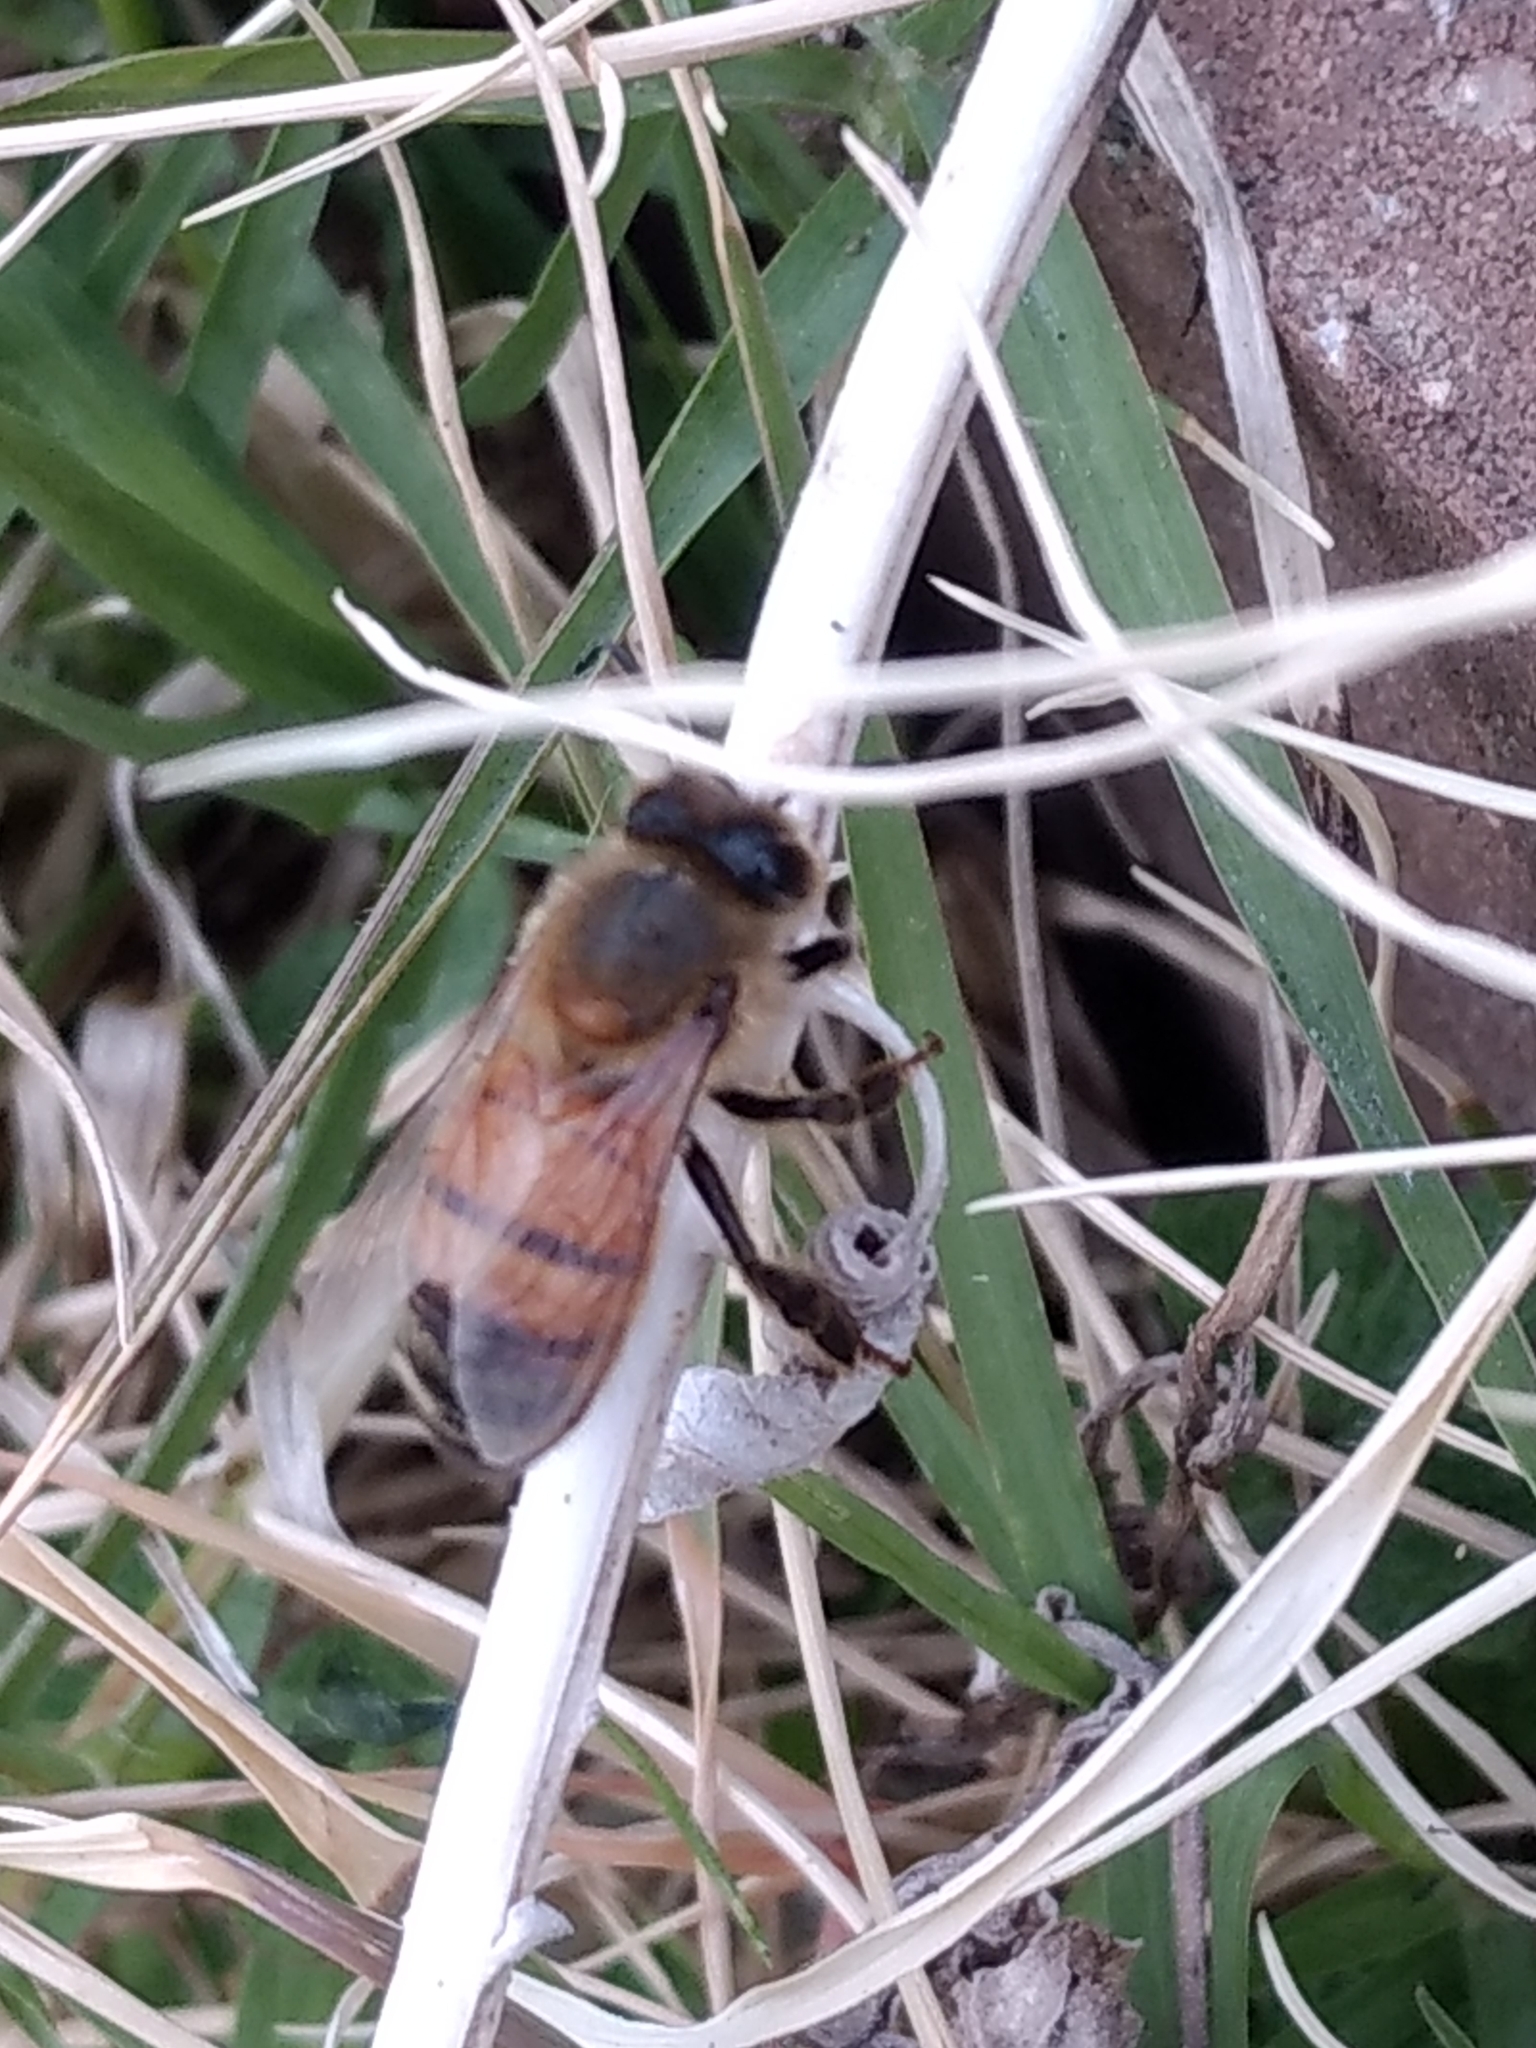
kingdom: Animalia
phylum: Arthropoda
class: Insecta
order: Hymenoptera
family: Apidae
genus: Apis
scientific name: Apis mellifera
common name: Honey bee
